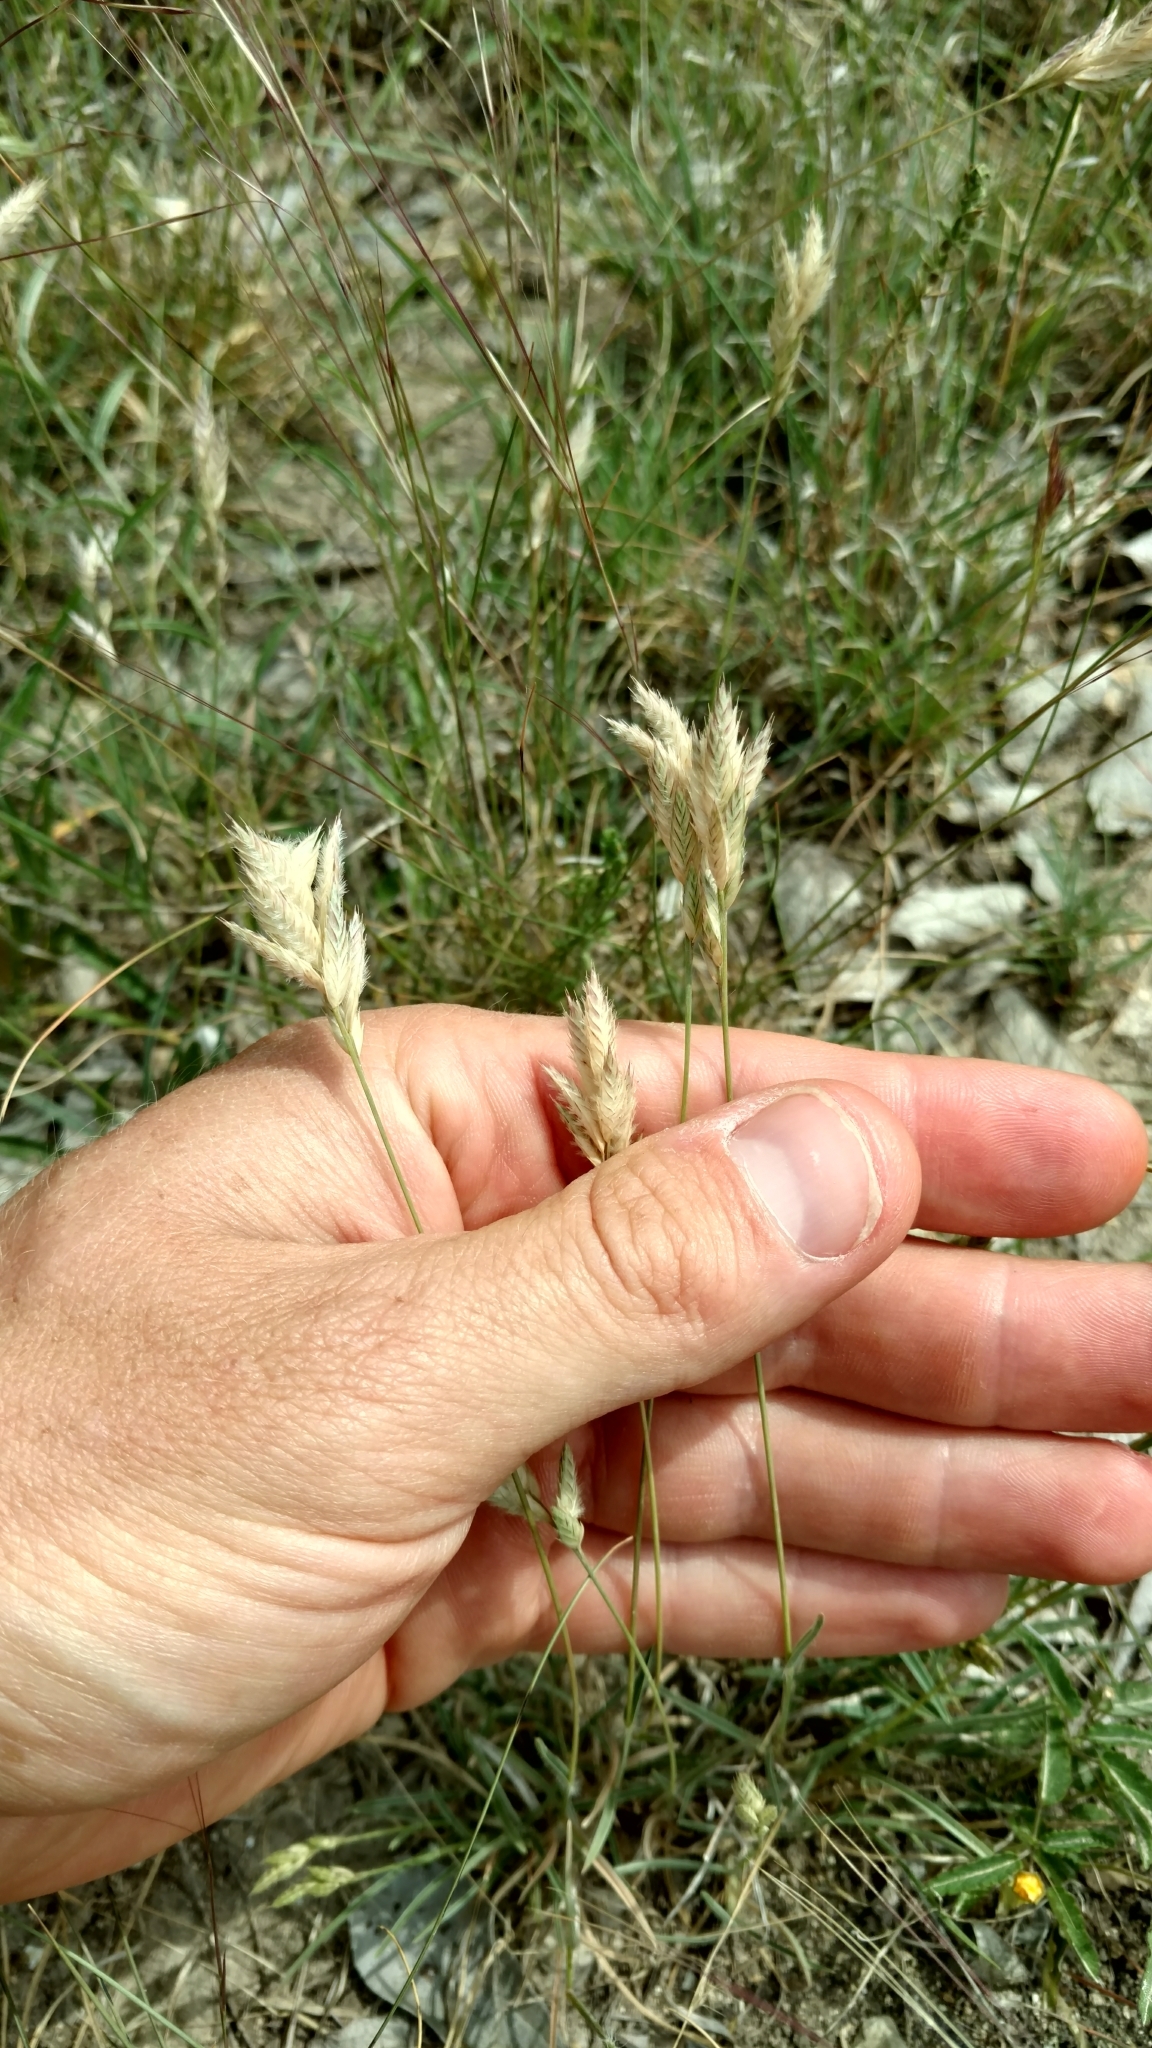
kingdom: Plantae
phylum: Tracheophyta
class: Liliopsida
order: Poales
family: Poaceae
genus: Erioneuron
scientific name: Erioneuron pilosum
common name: Hairy woolly grass
